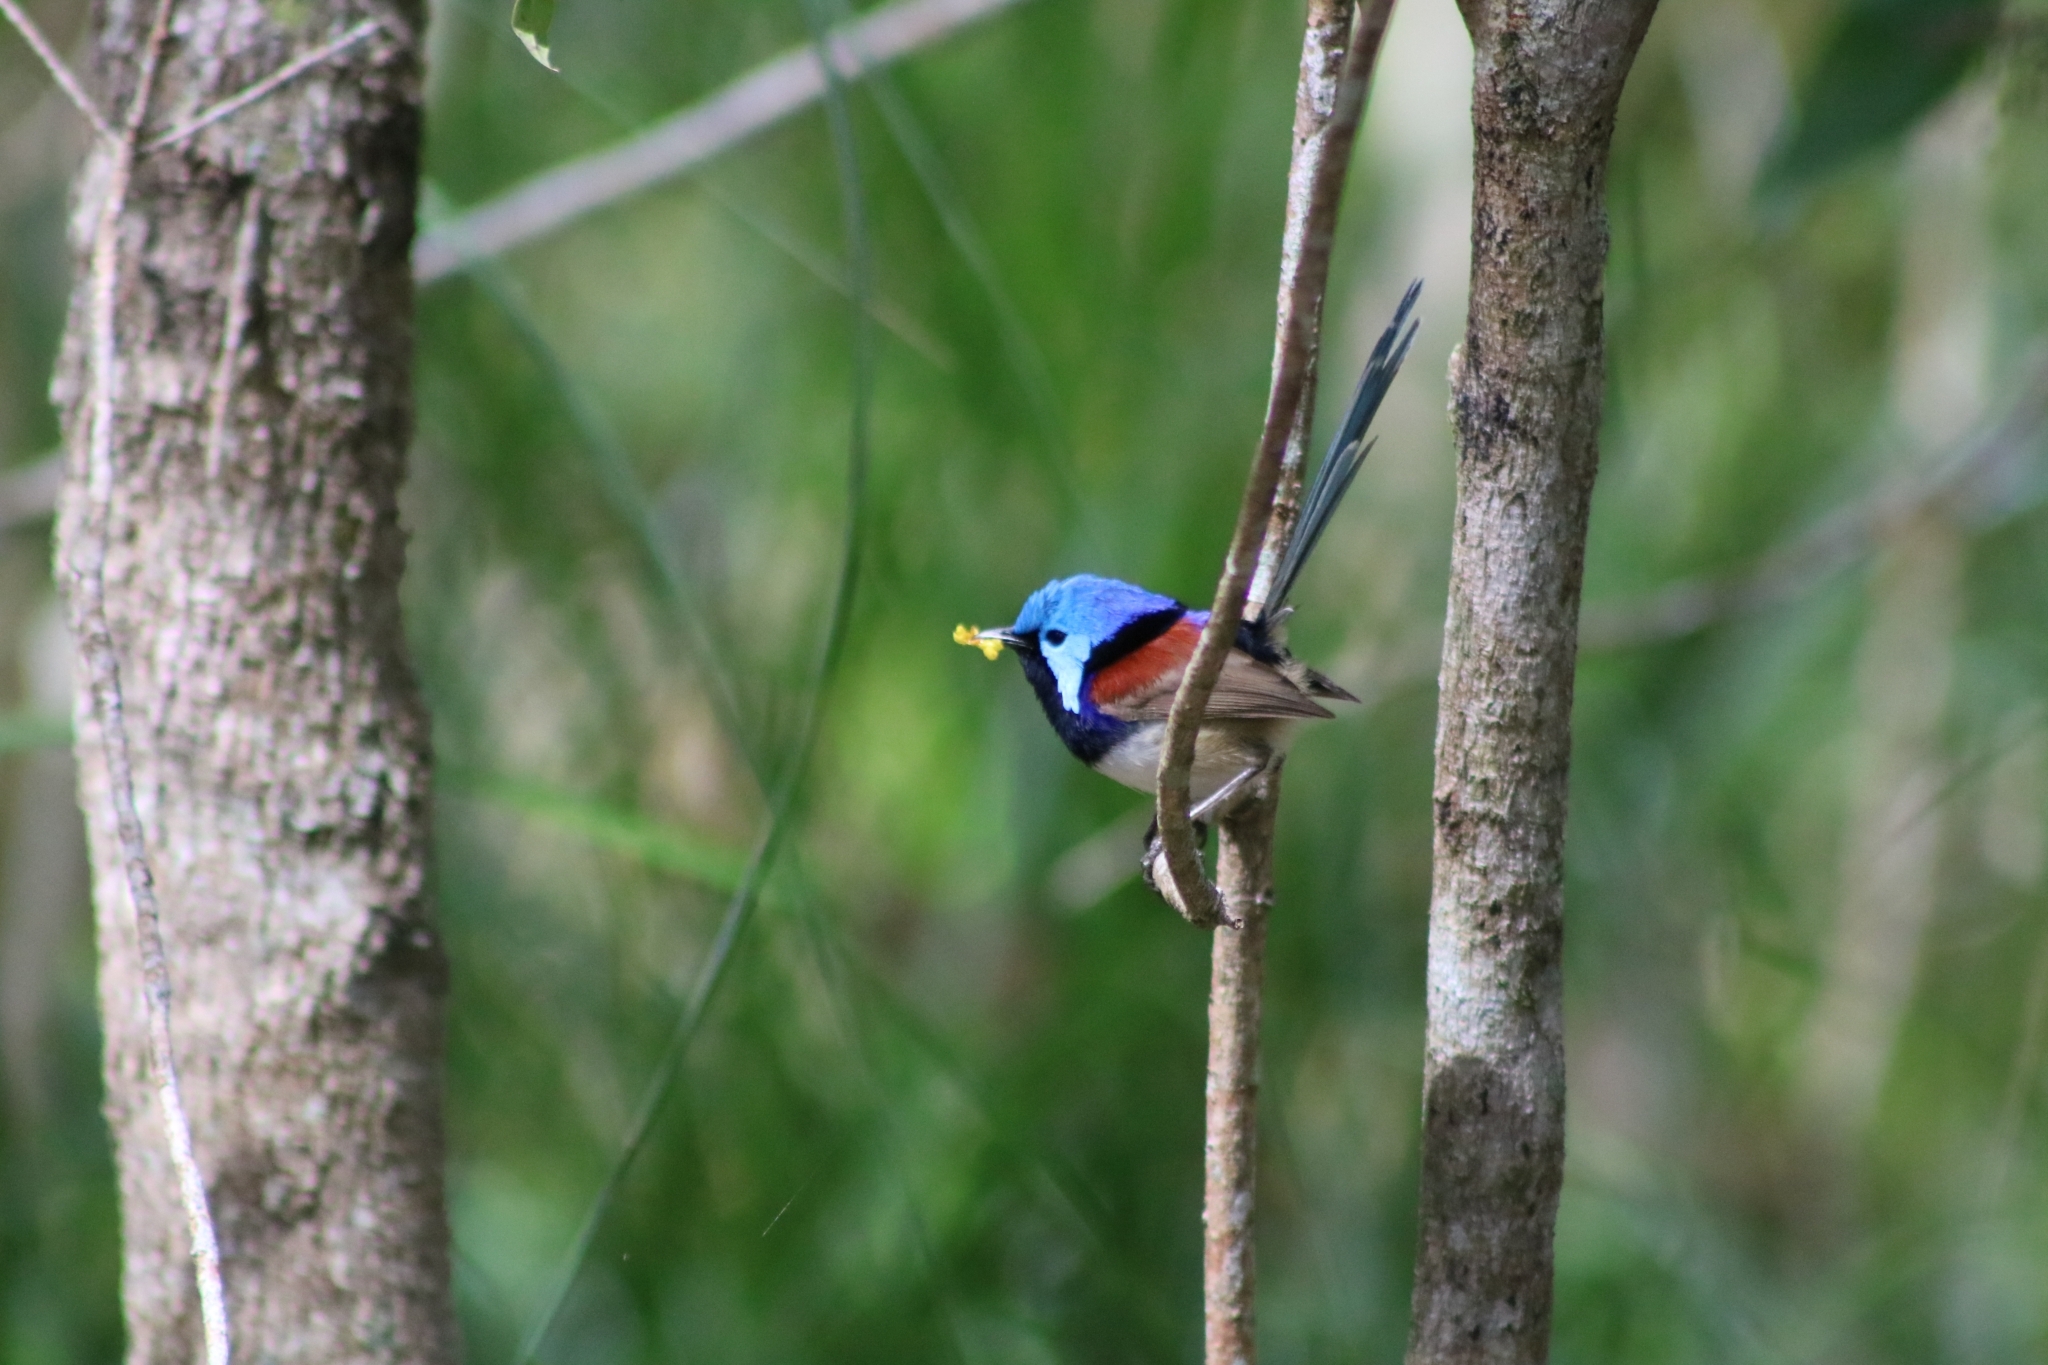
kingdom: Animalia
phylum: Chordata
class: Aves
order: Passeriformes
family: Maluridae
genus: Malurus
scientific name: Malurus lamberti
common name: Variegated fairywren
